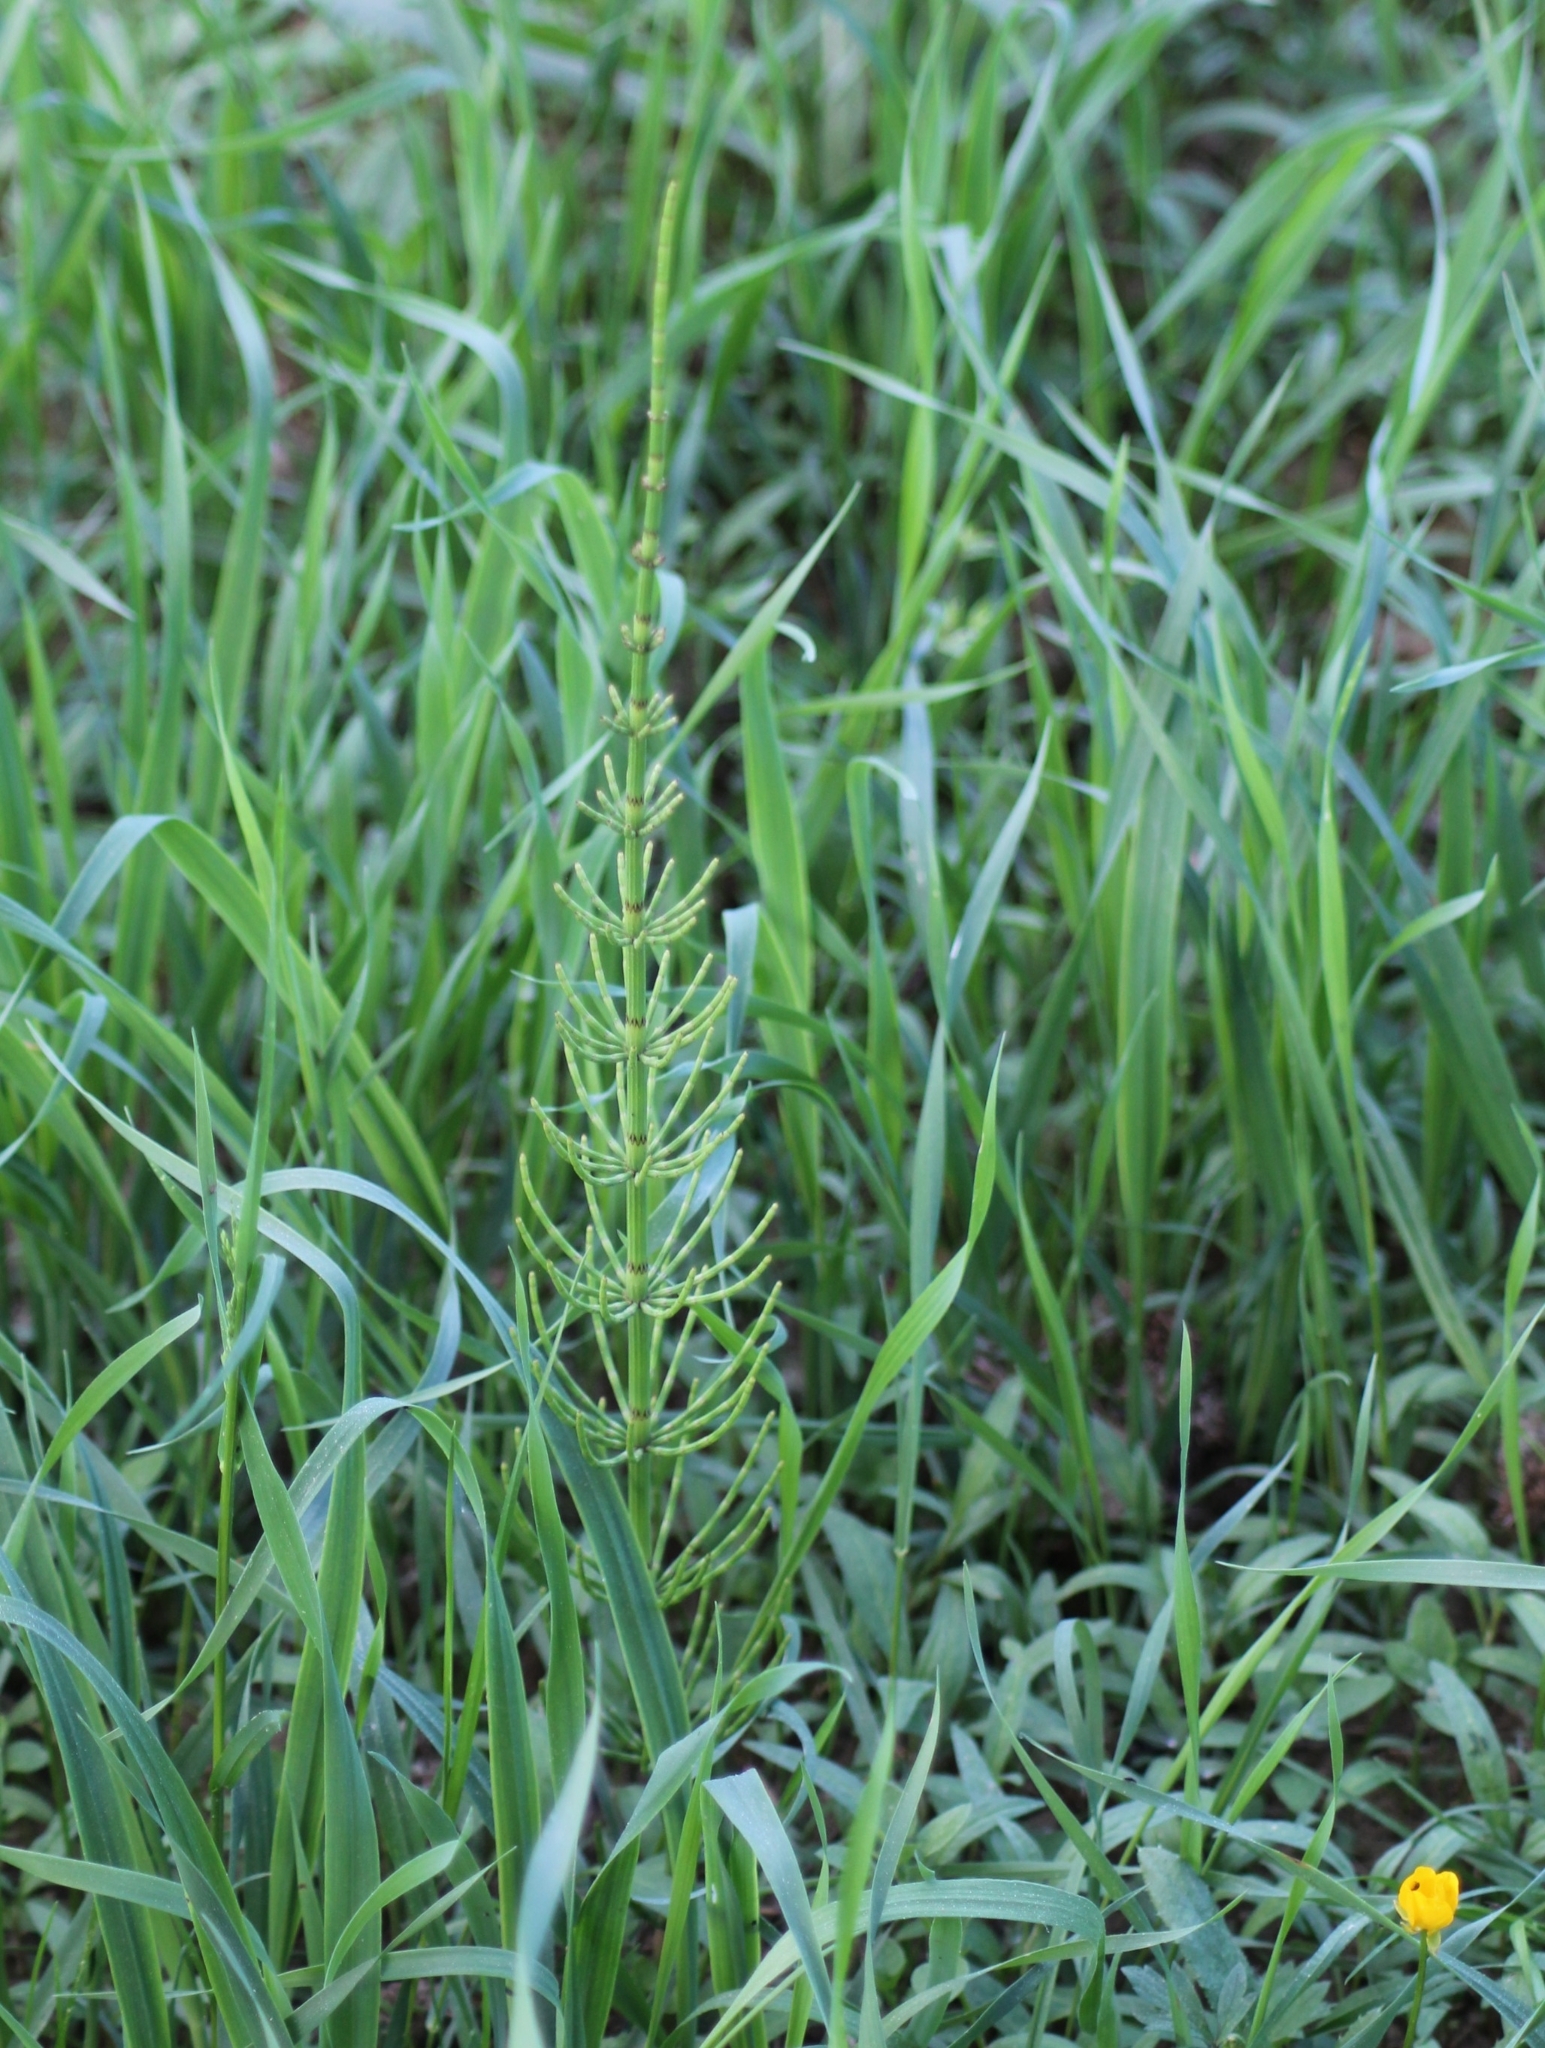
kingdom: Plantae
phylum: Tracheophyta
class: Polypodiopsida
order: Equisetales
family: Equisetaceae
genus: Equisetum
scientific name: Equisetum palustre
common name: Marsh horsetail
